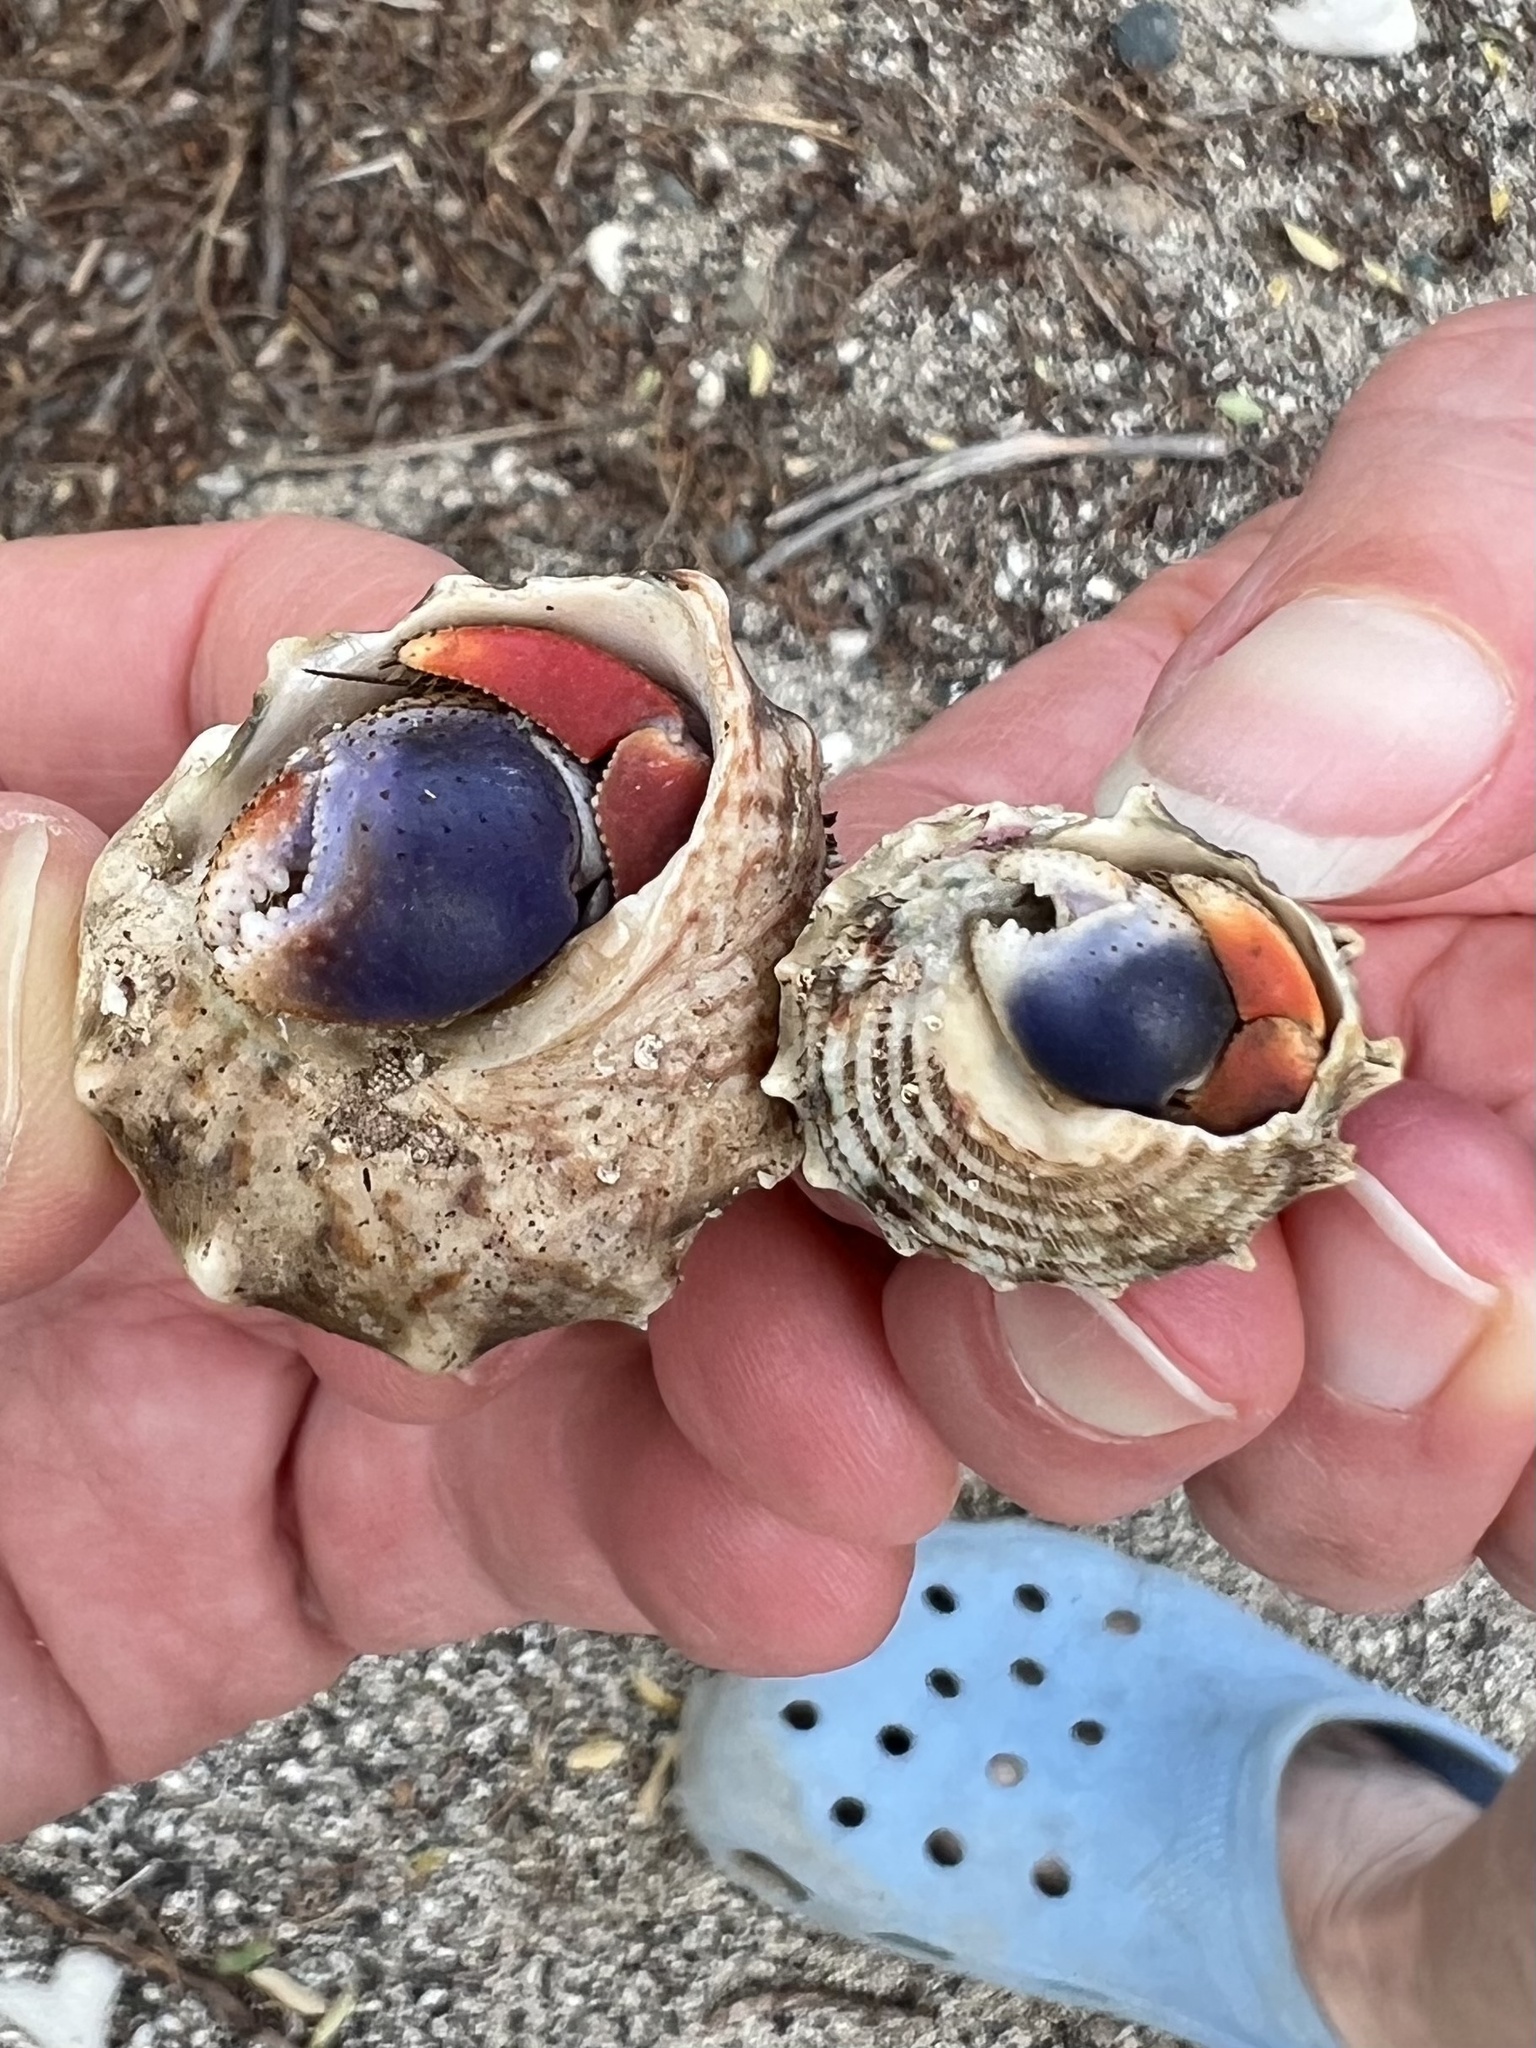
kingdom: Animalia
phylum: Arthropoda
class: Malacostraca
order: Decapoda
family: Coenobitidae
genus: Coenobita
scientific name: Coenobita clypeatus
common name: Caribbean hermit crab
